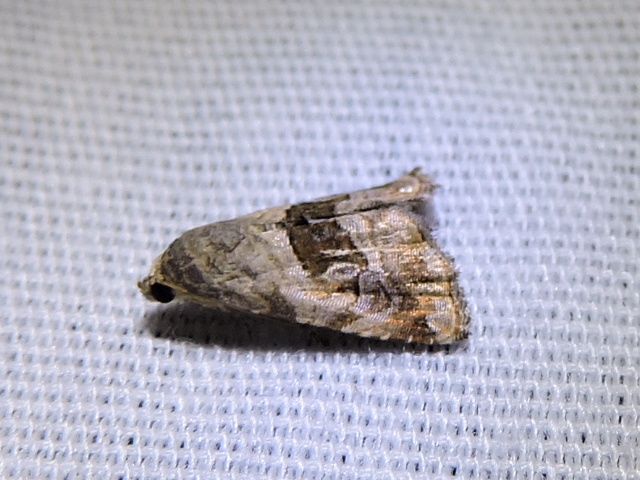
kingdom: Animalia
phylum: Arthropoda
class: Insecta
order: Lepidoptera
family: Noctuidae
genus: Tripudia
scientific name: Tripudia quadrifera
